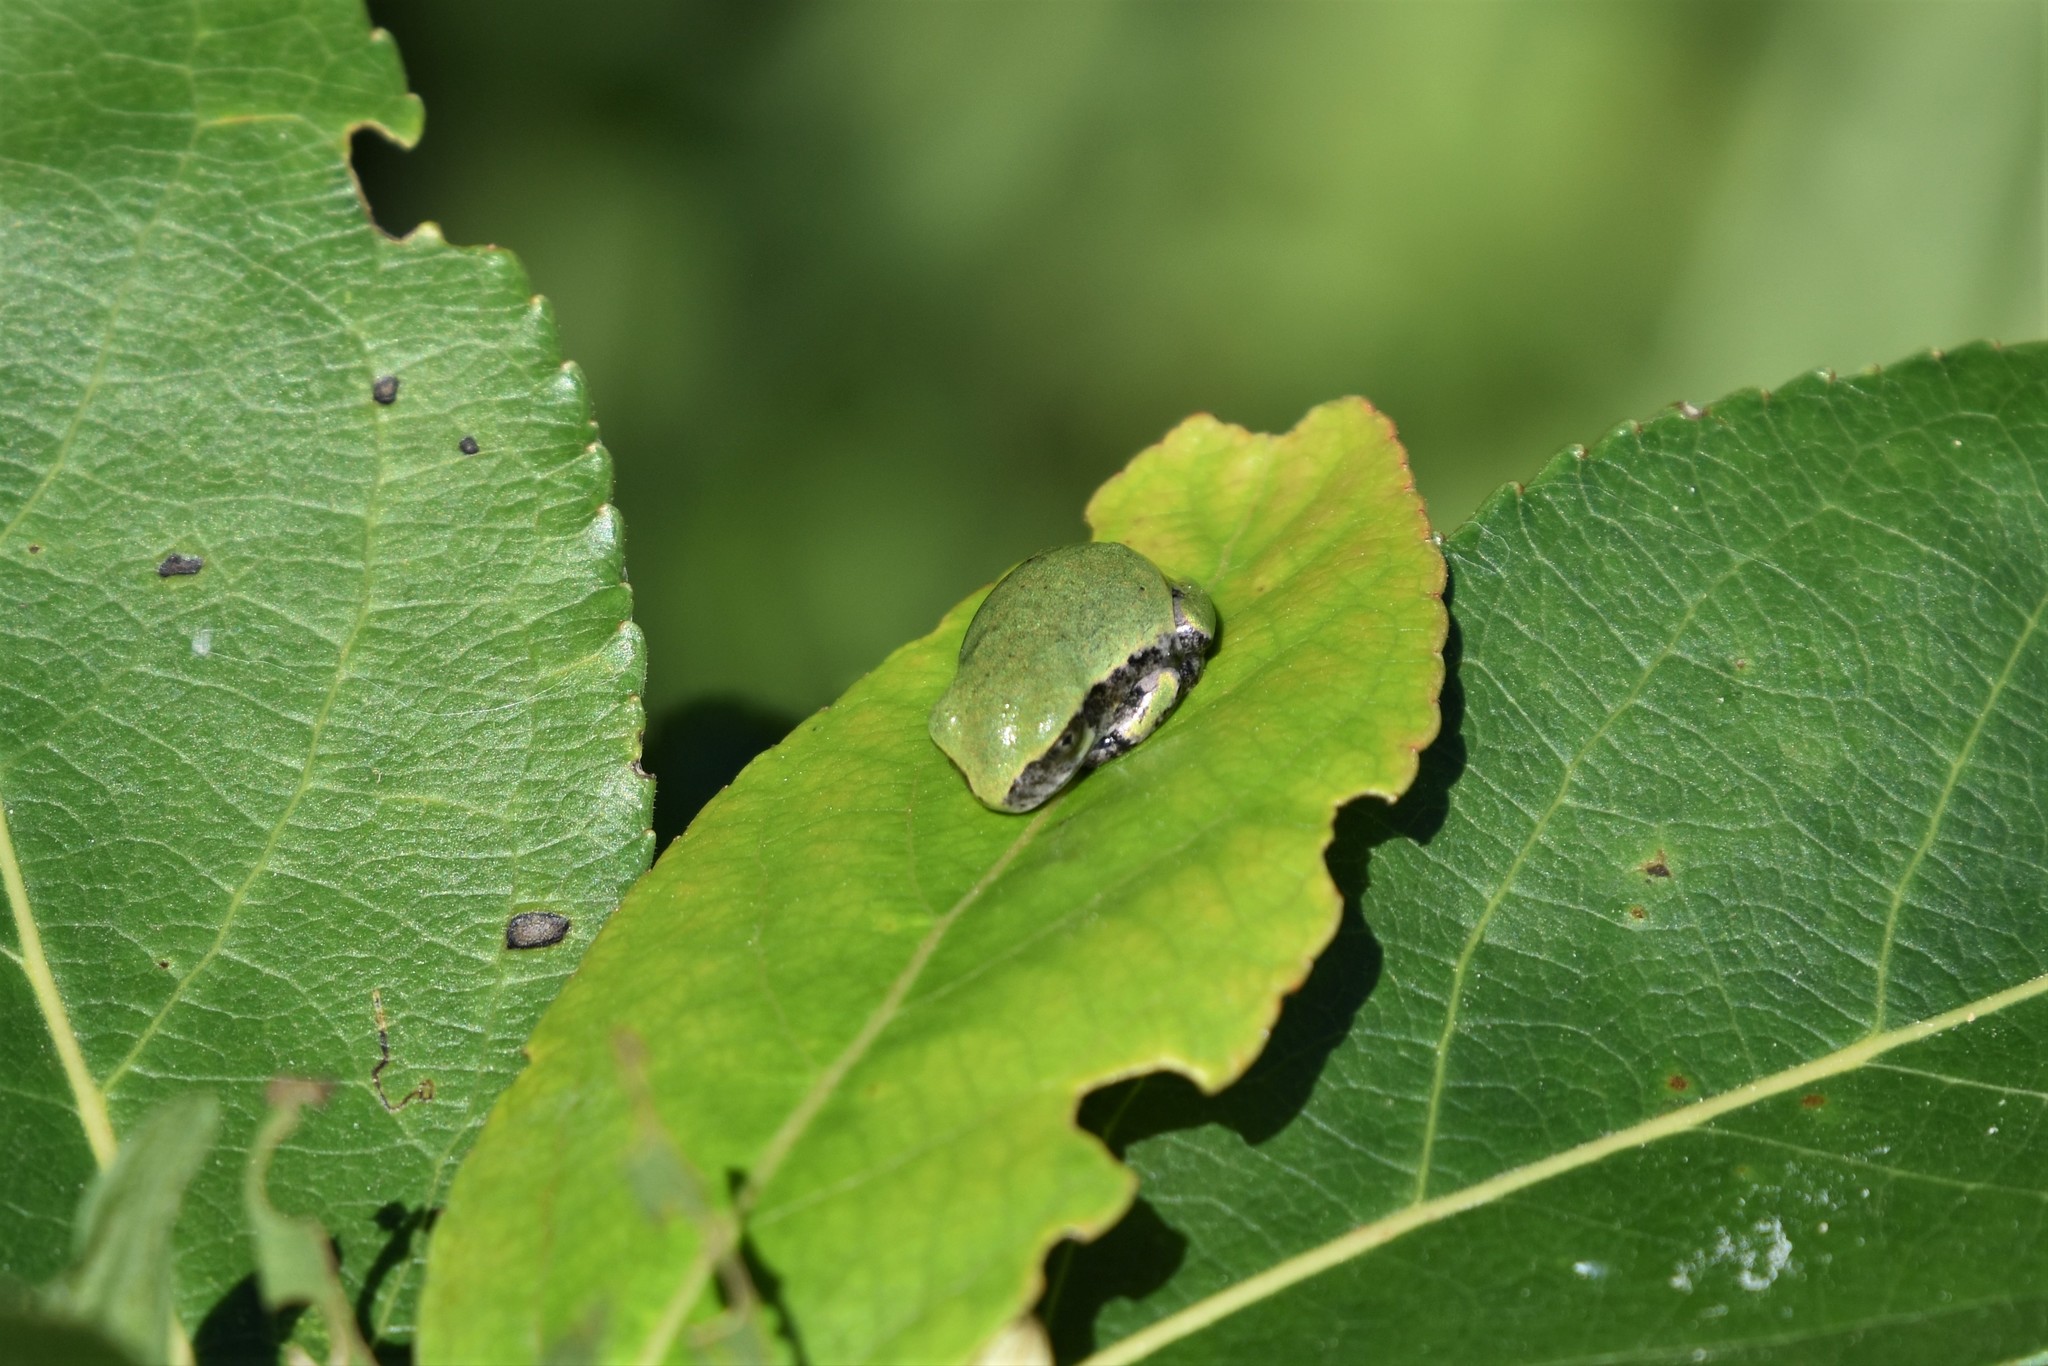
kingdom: Animalia
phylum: Chordata
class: Amphibia
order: Anura
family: Hylidae
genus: Dryophytes
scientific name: Dryophytes versicolor
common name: Gray treefrog
